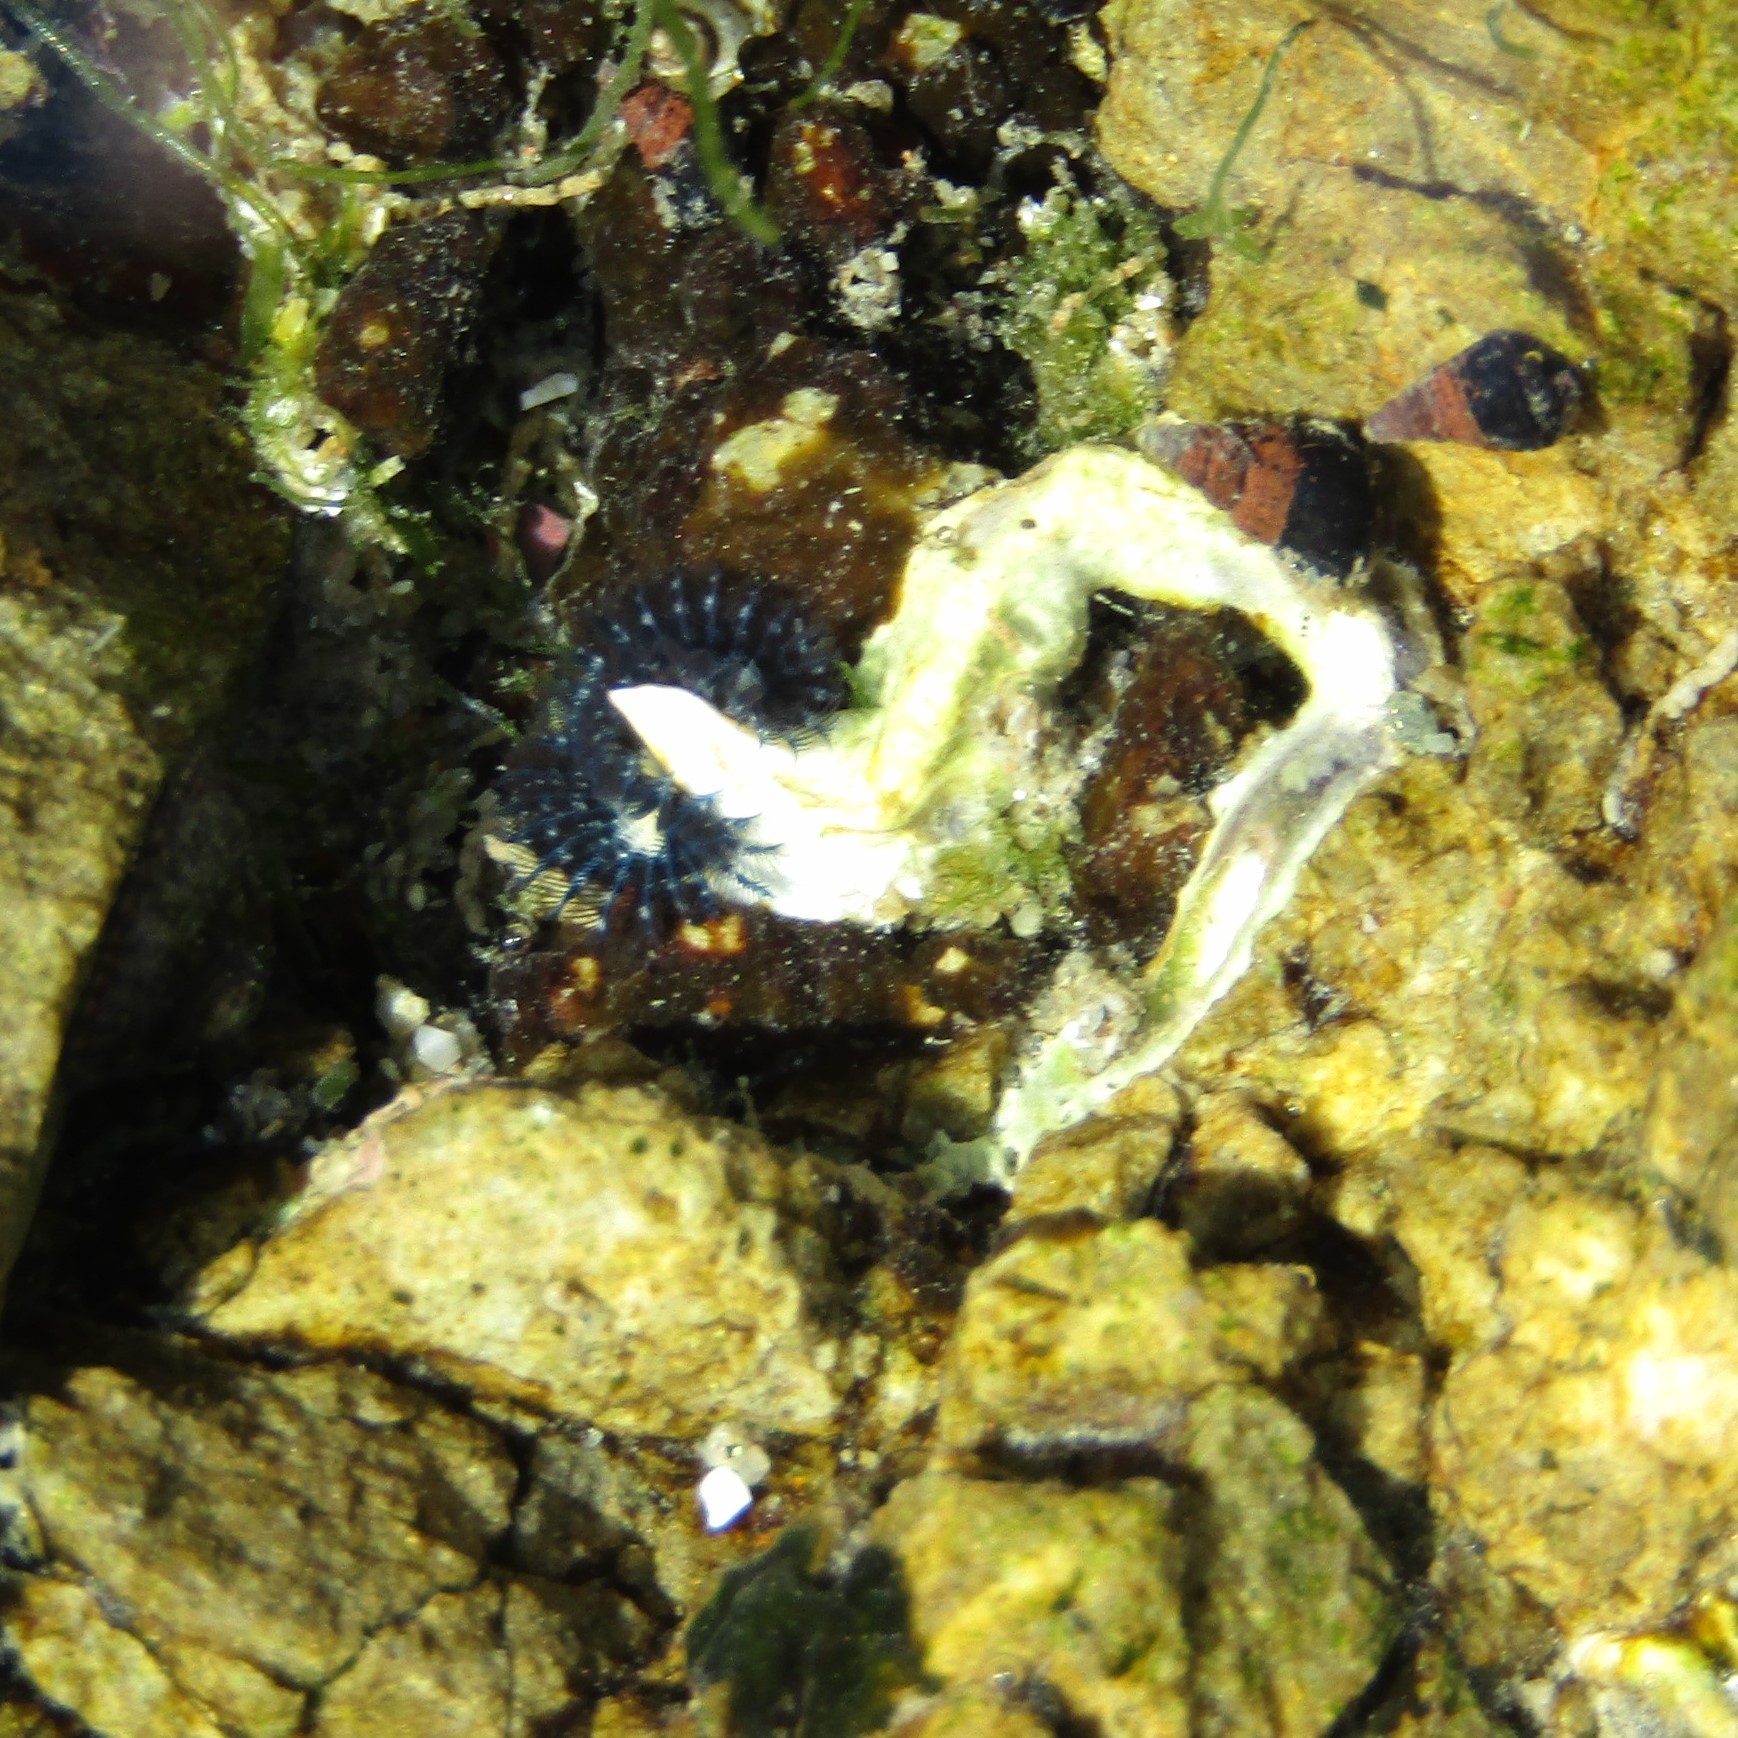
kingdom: Animalia
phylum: Annelida
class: Polychaeta
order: Sabellida
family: Serpulidae
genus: Spirobranchus
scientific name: Spirobranchus cariniferus
